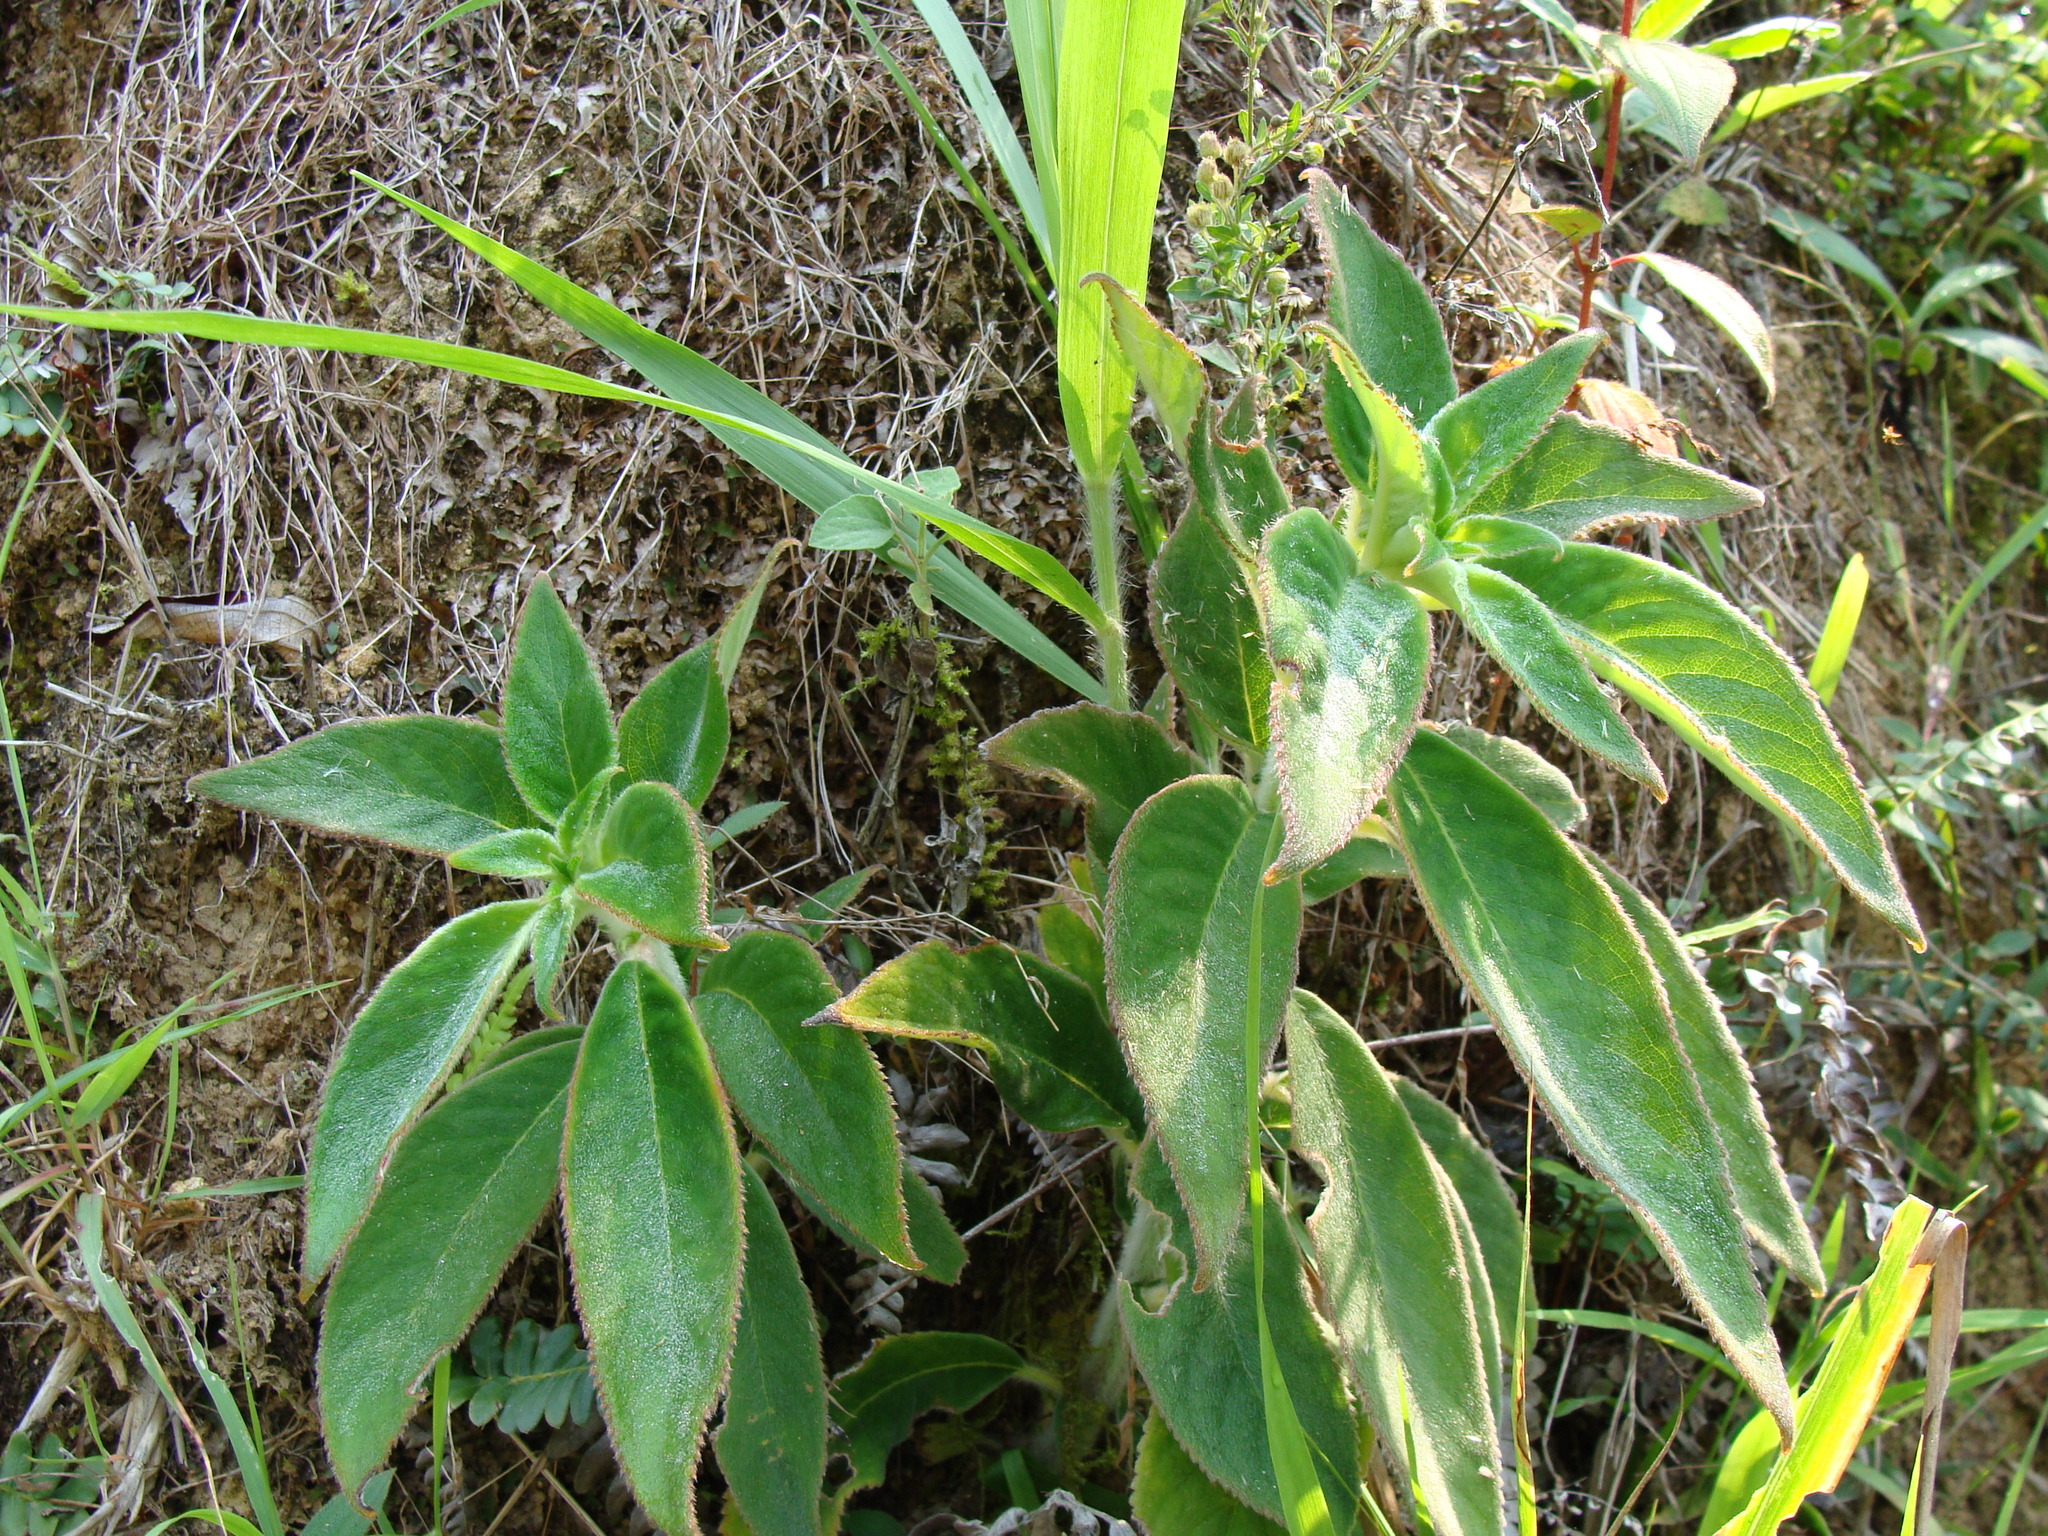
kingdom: Plantae
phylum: Tracheophyta
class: Magnoliopsida
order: Lamiales
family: Gesneriaceae
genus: Kohleria
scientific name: Kohleria spicata
